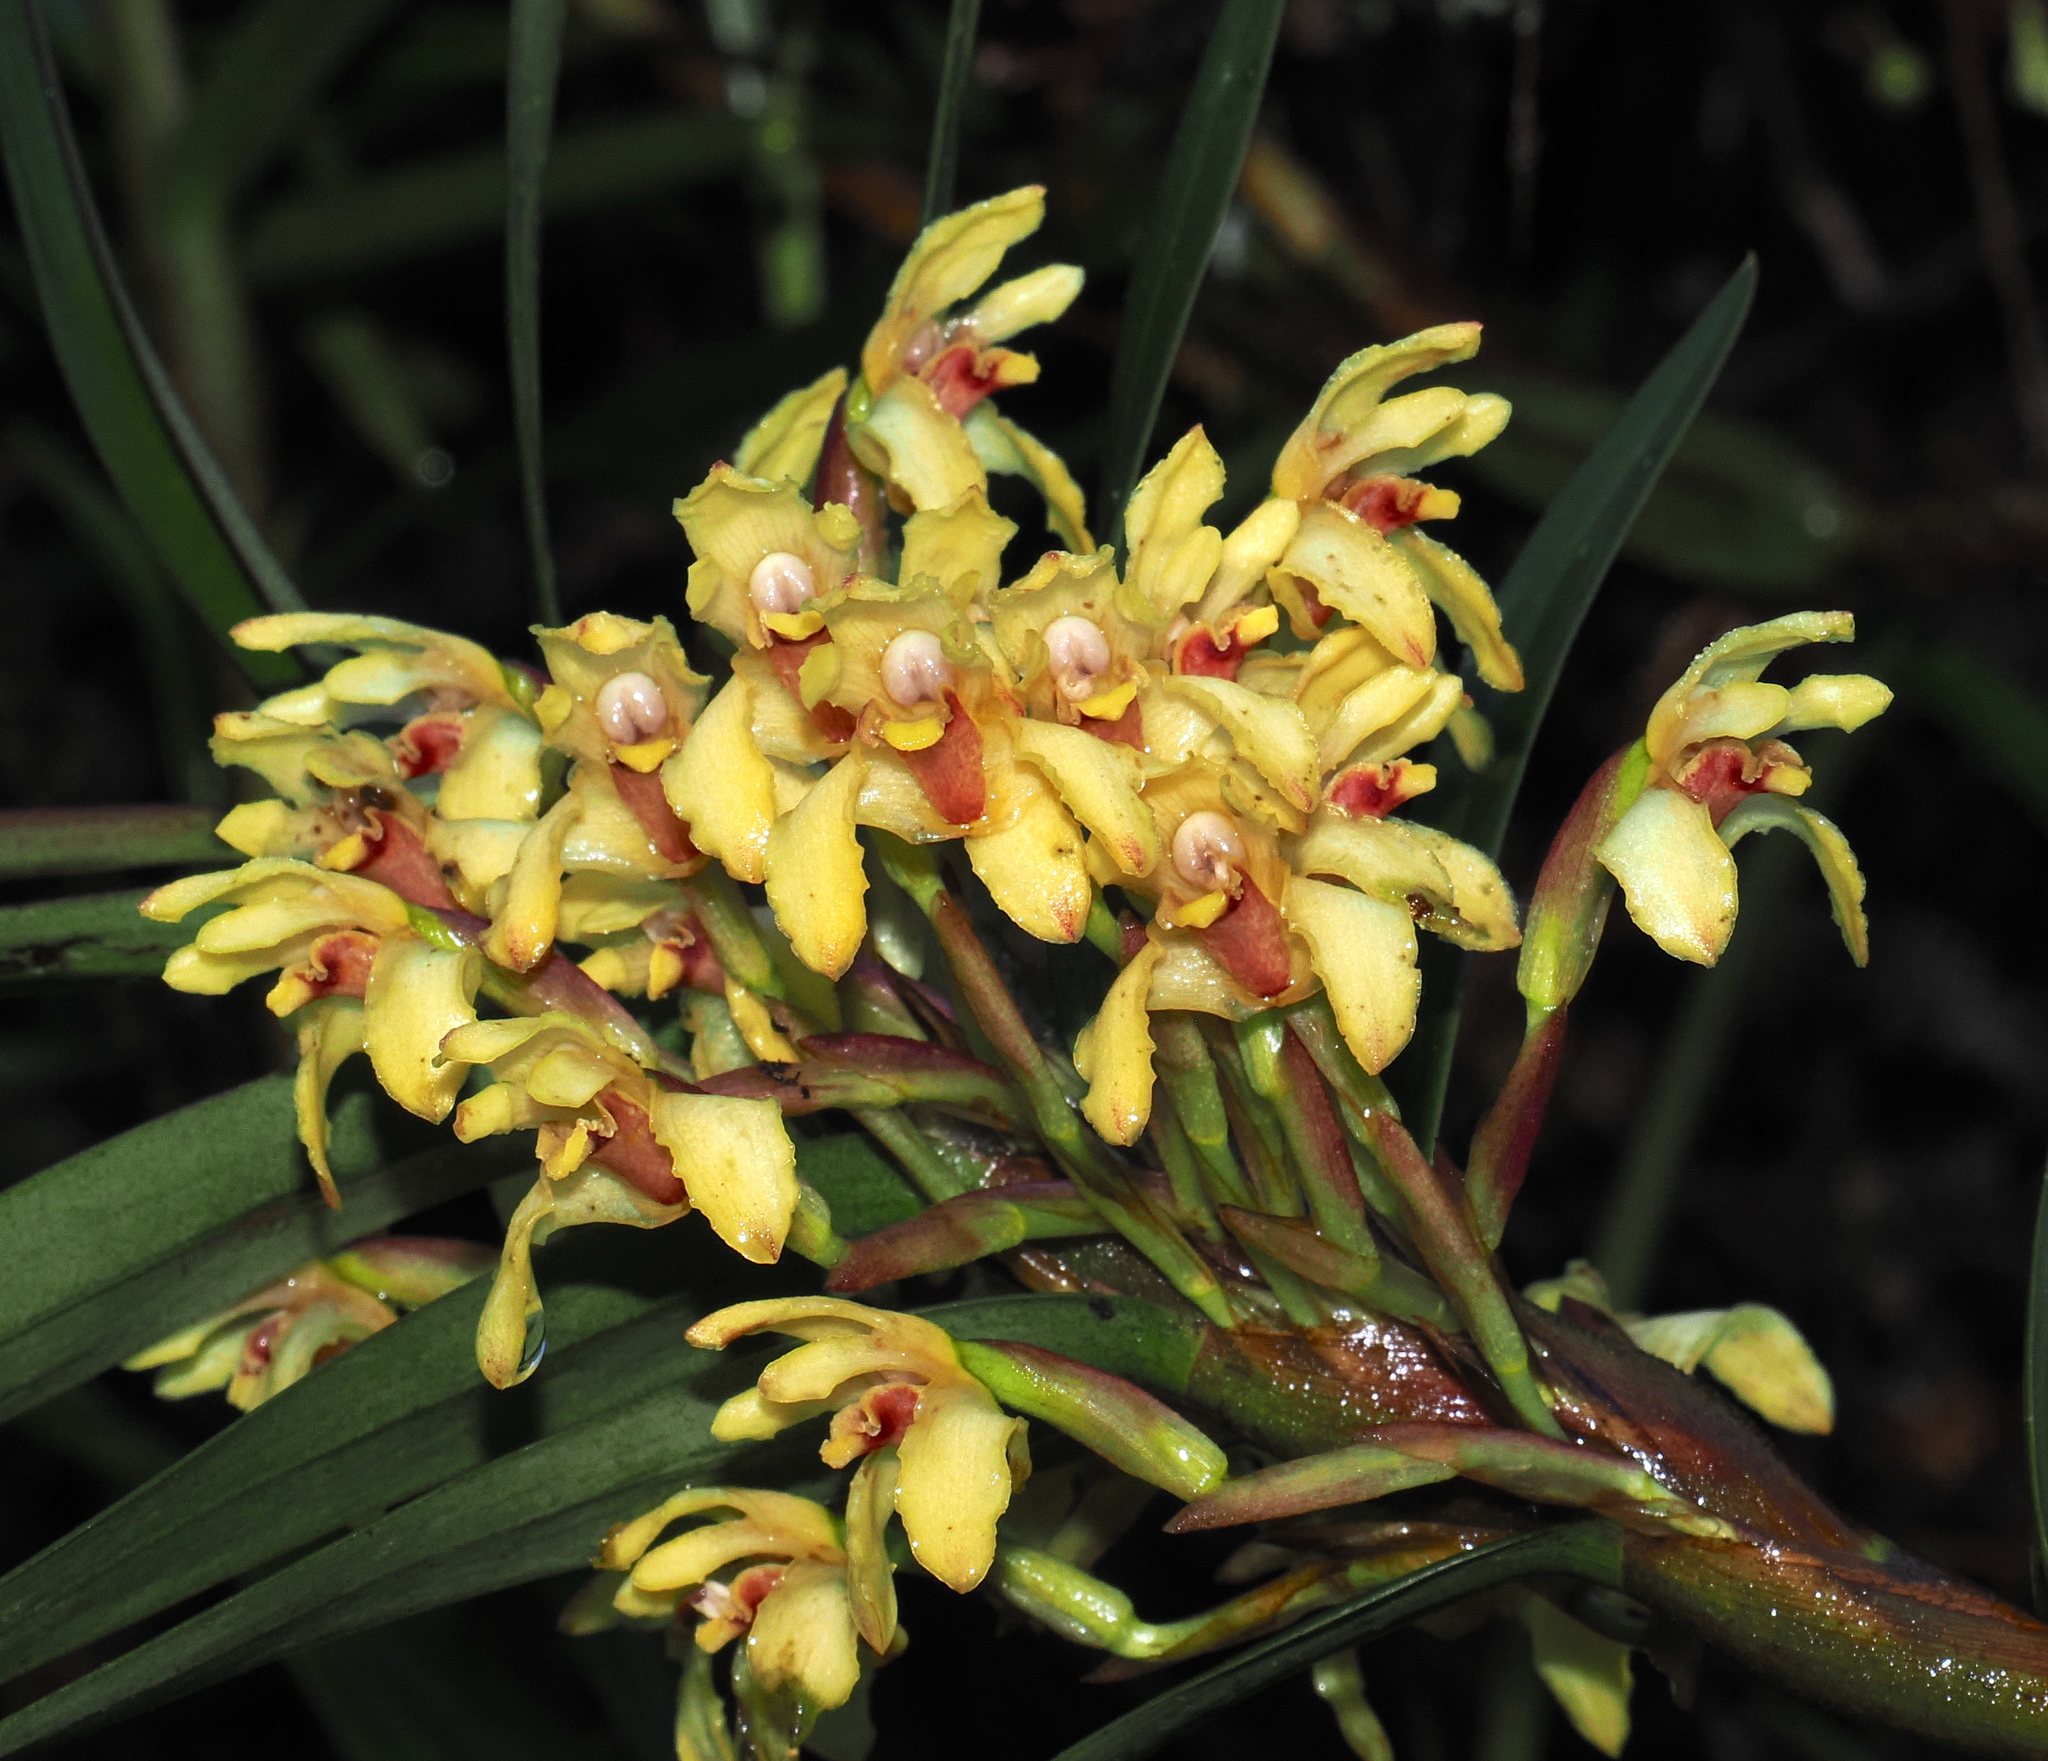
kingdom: Plantae
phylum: Tracheophyta
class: Liliopsida
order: Asparagales
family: Orchidaceae
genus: Maxillaria
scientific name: Maxillaria embreei
